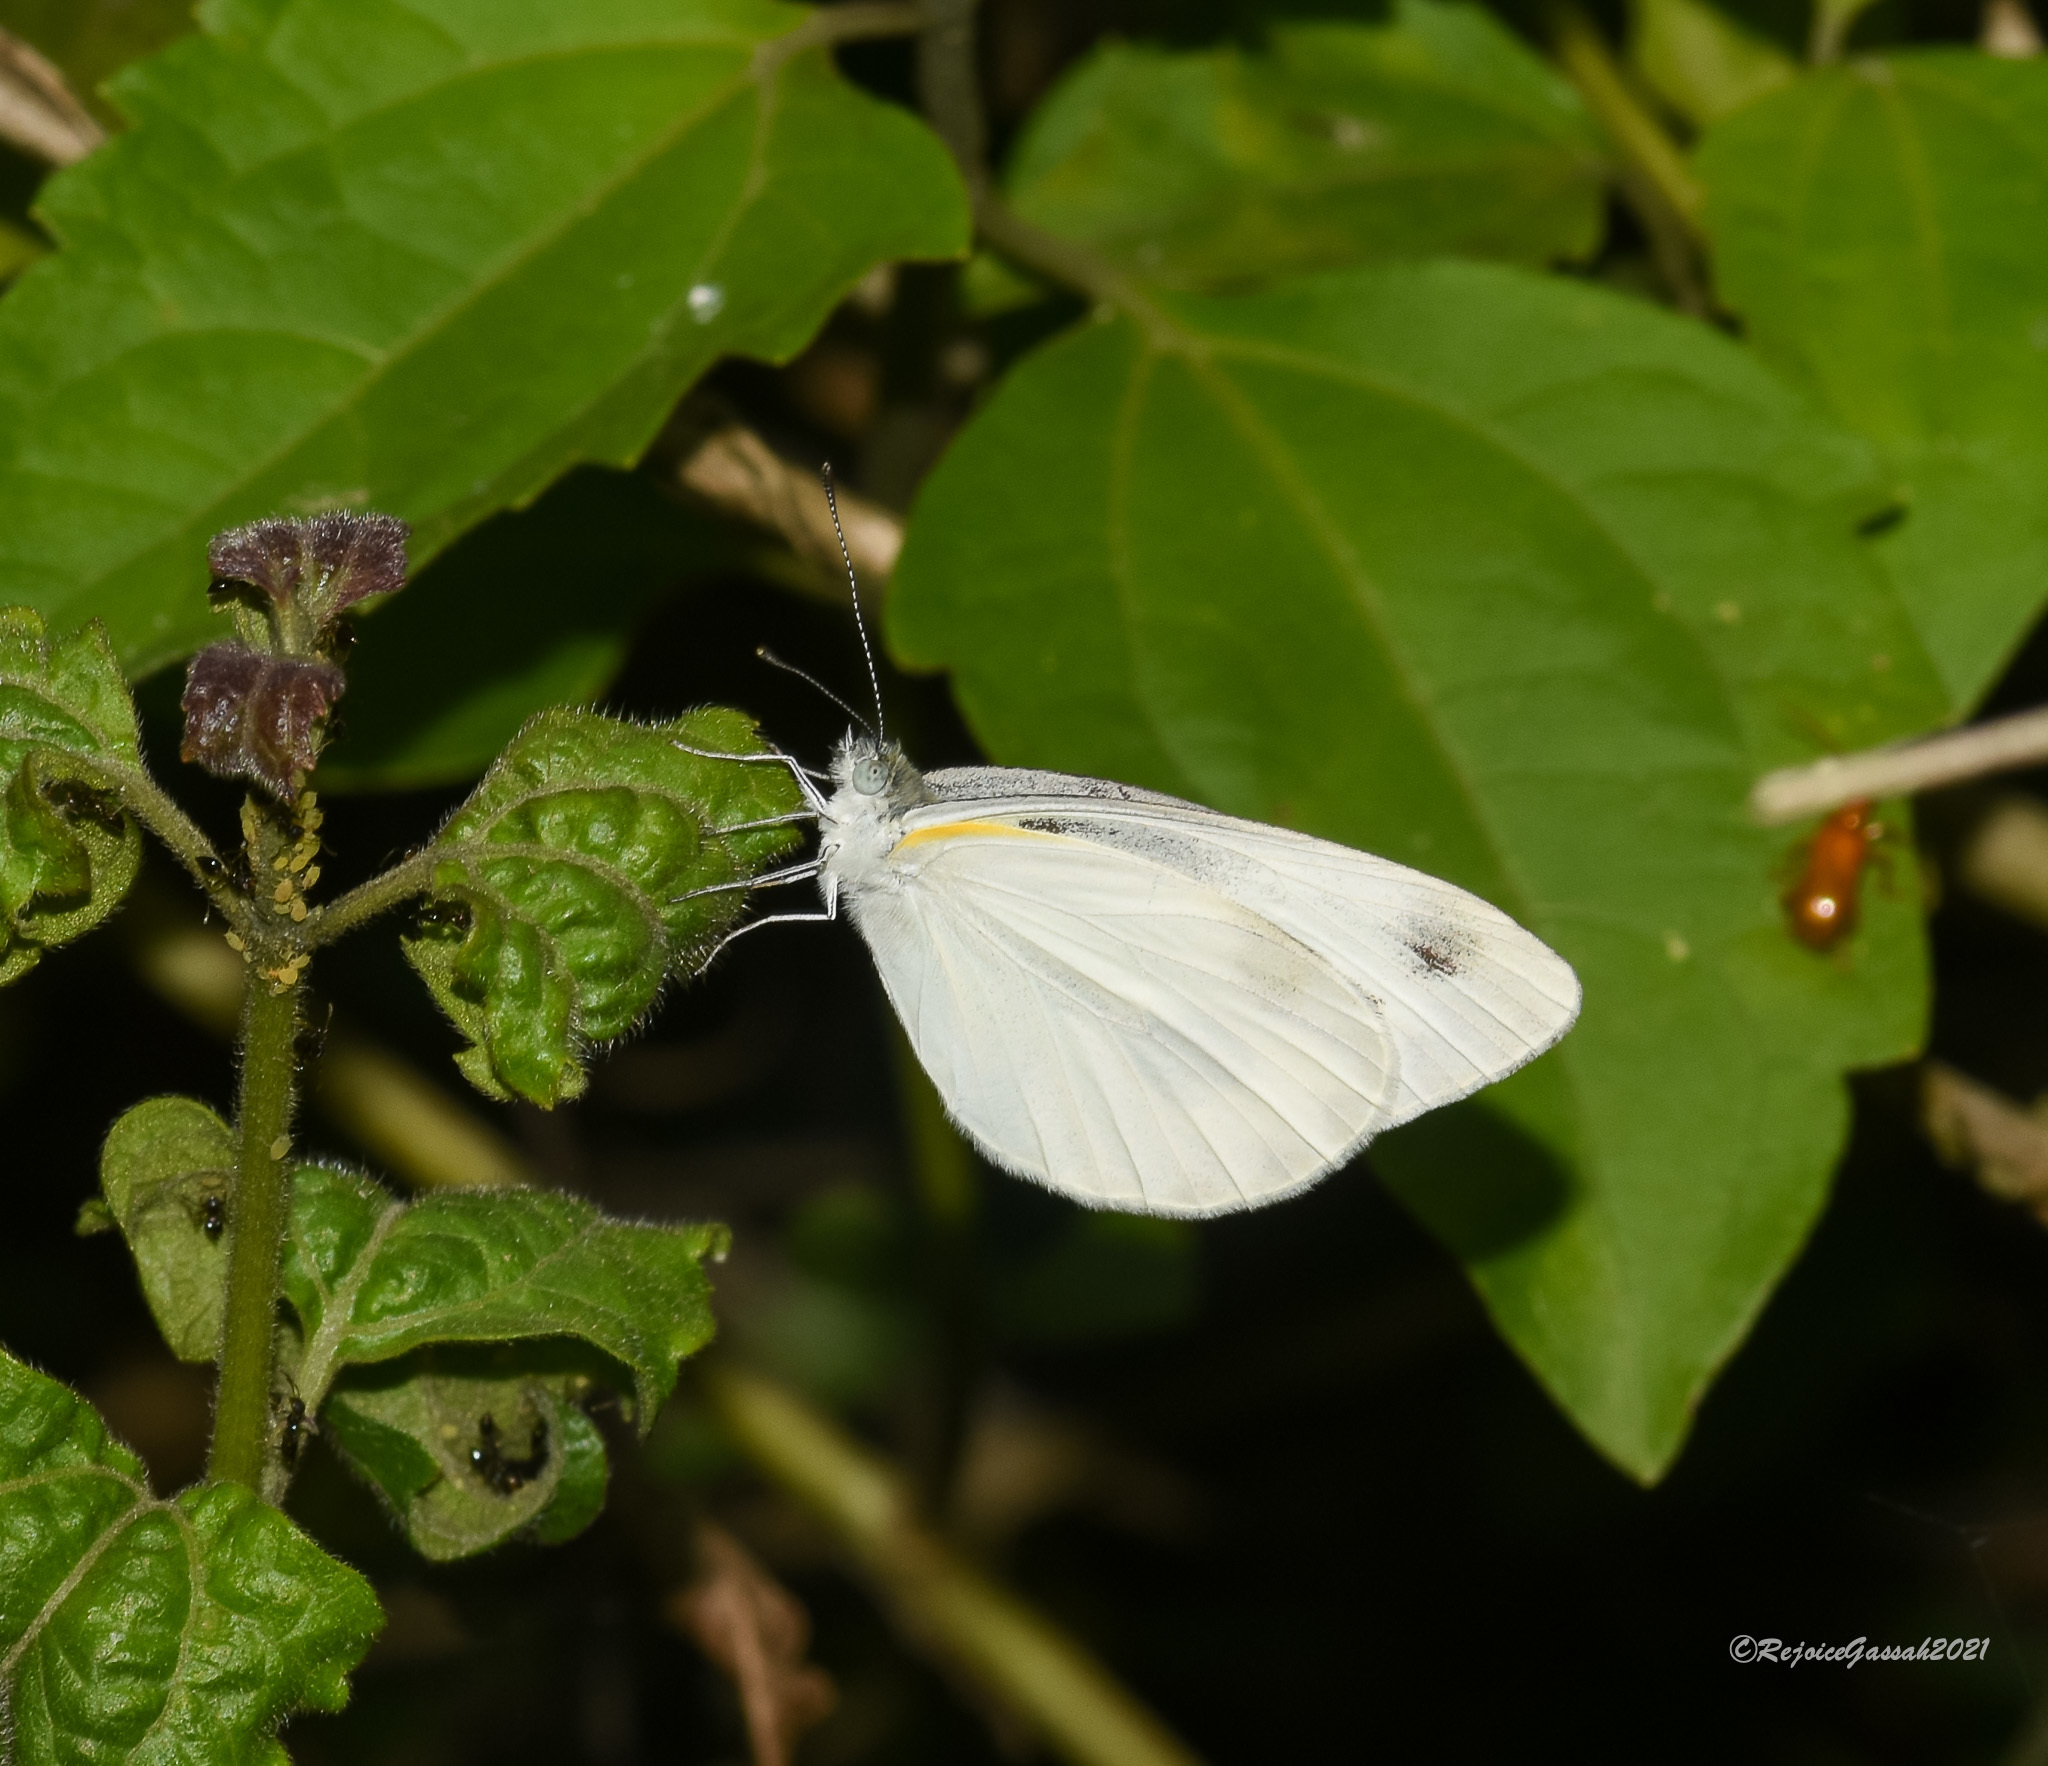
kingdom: Animalia
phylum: Arthropoda
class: Insecta
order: Lepidoptera
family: Pieridae
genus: Pieris
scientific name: Pieris canidia
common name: Indian cabbage white
